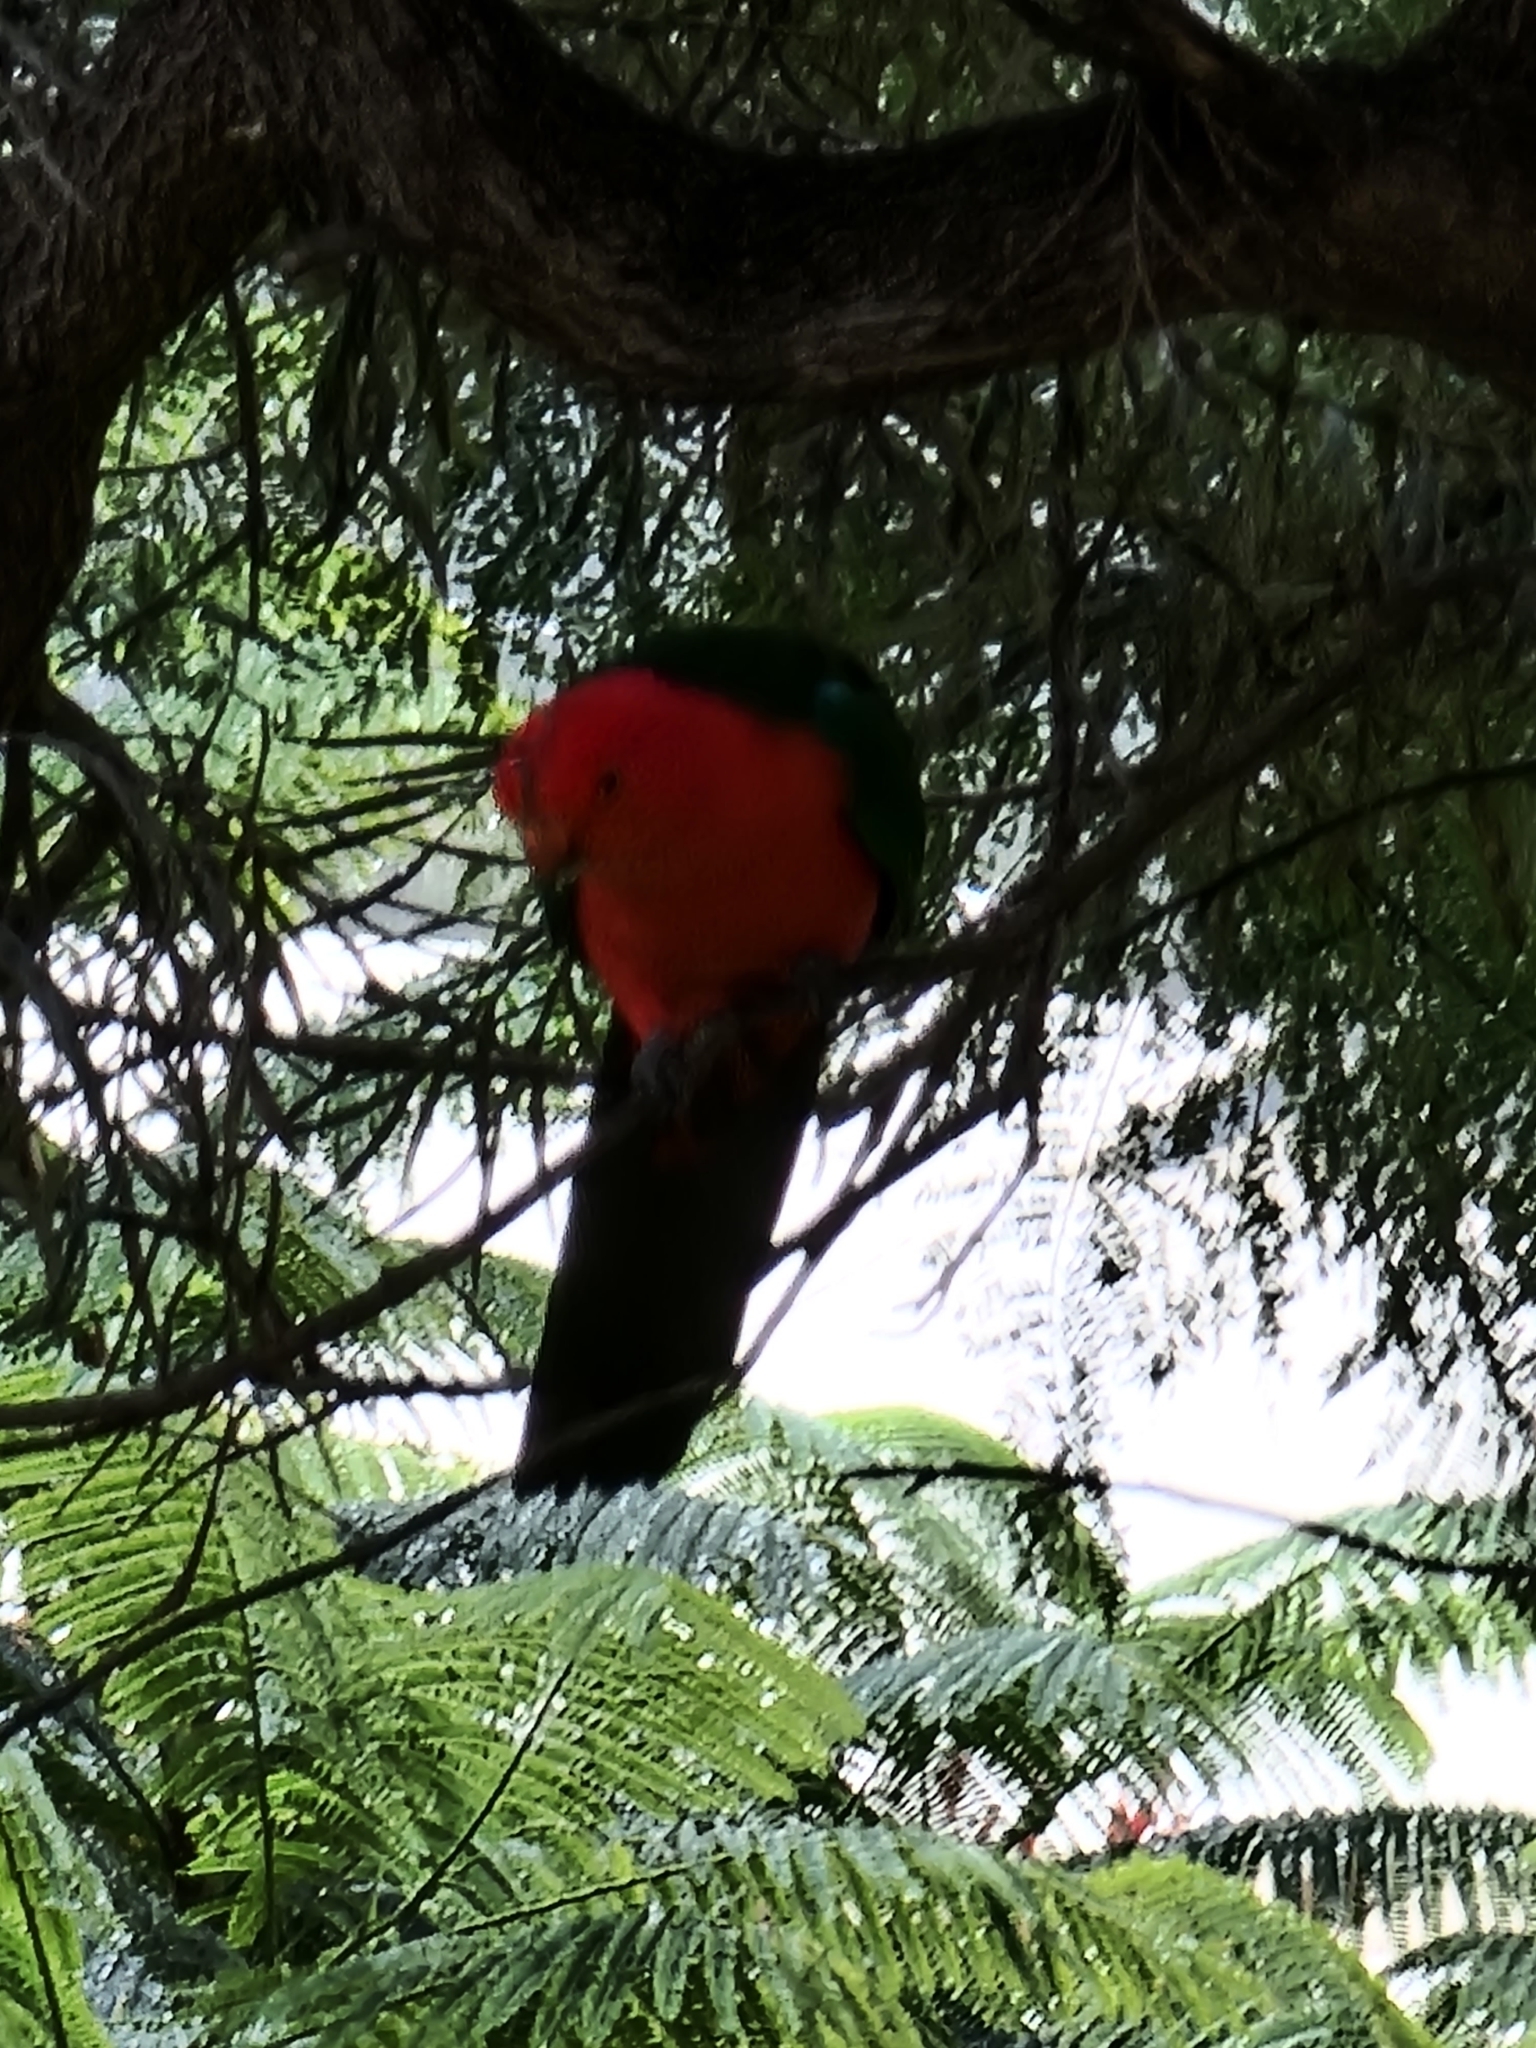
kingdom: Animalia
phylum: Chordata
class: Aves
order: Psittaciformes
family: Psittacidae
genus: Alisterus
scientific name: Alisterus scapularis
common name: Australian king parrot
